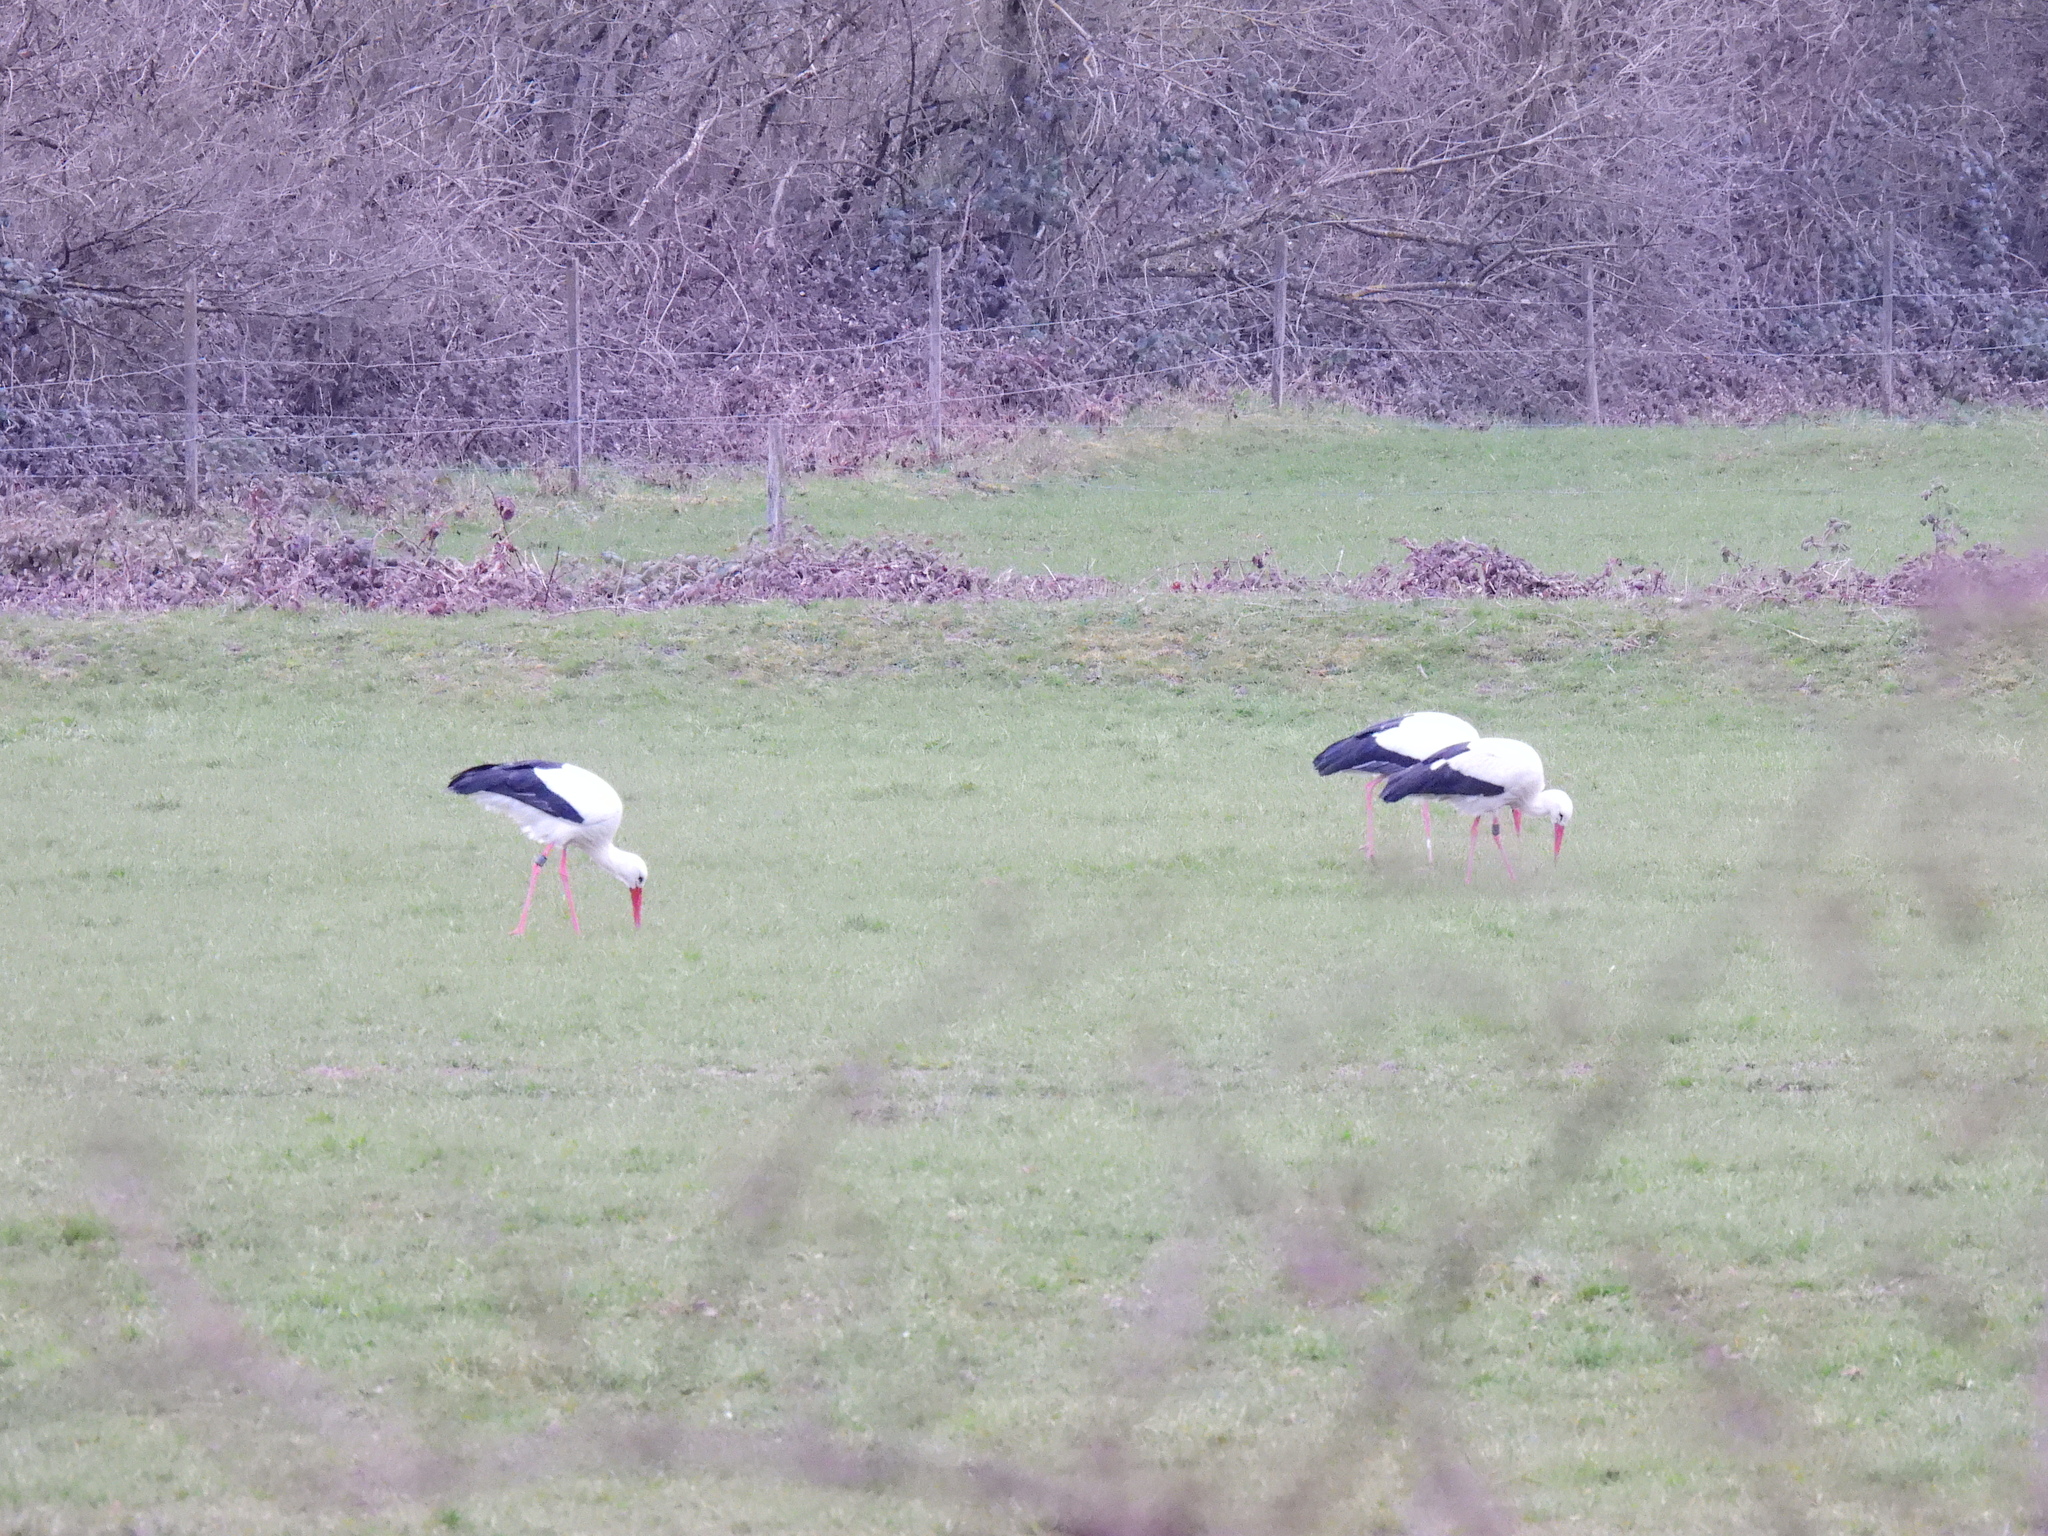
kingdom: Animalia
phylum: Chordata
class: Aves
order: Ciconiiformes
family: Ciconiidae
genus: Ciconia
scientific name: Ciconia ciconia
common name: White stork
